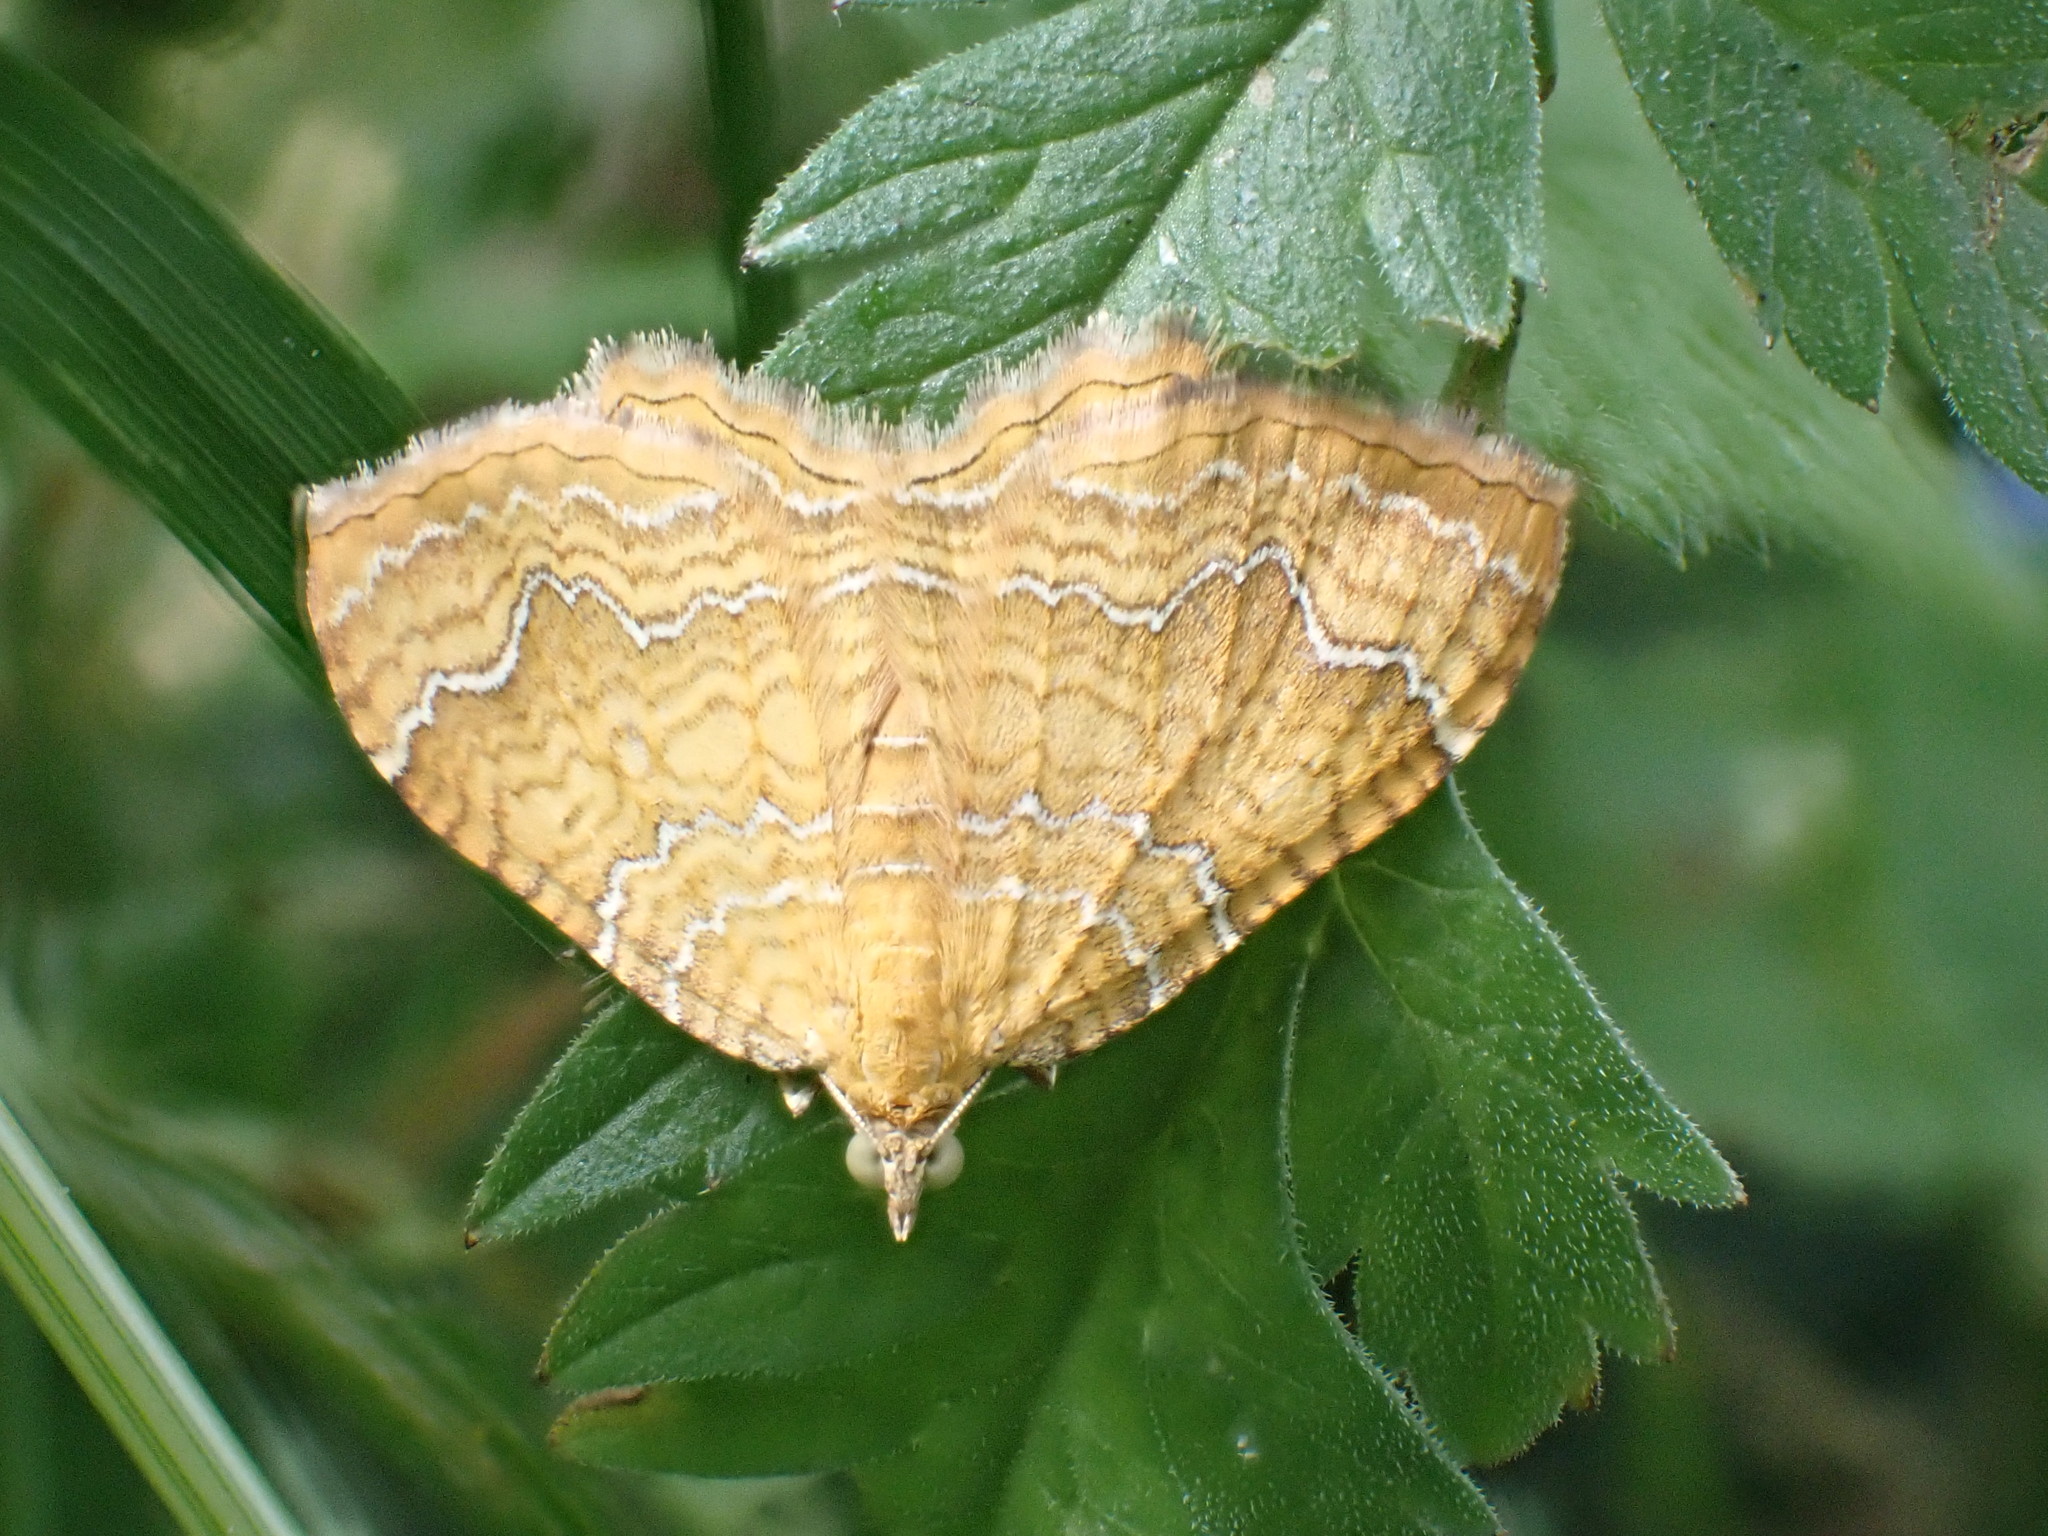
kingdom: Animalia
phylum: Arthropoda
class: Insecta
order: Lepidoptera
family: Geometridae
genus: Camptogramma
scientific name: Camptogramma bilineata
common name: Yellow shell
